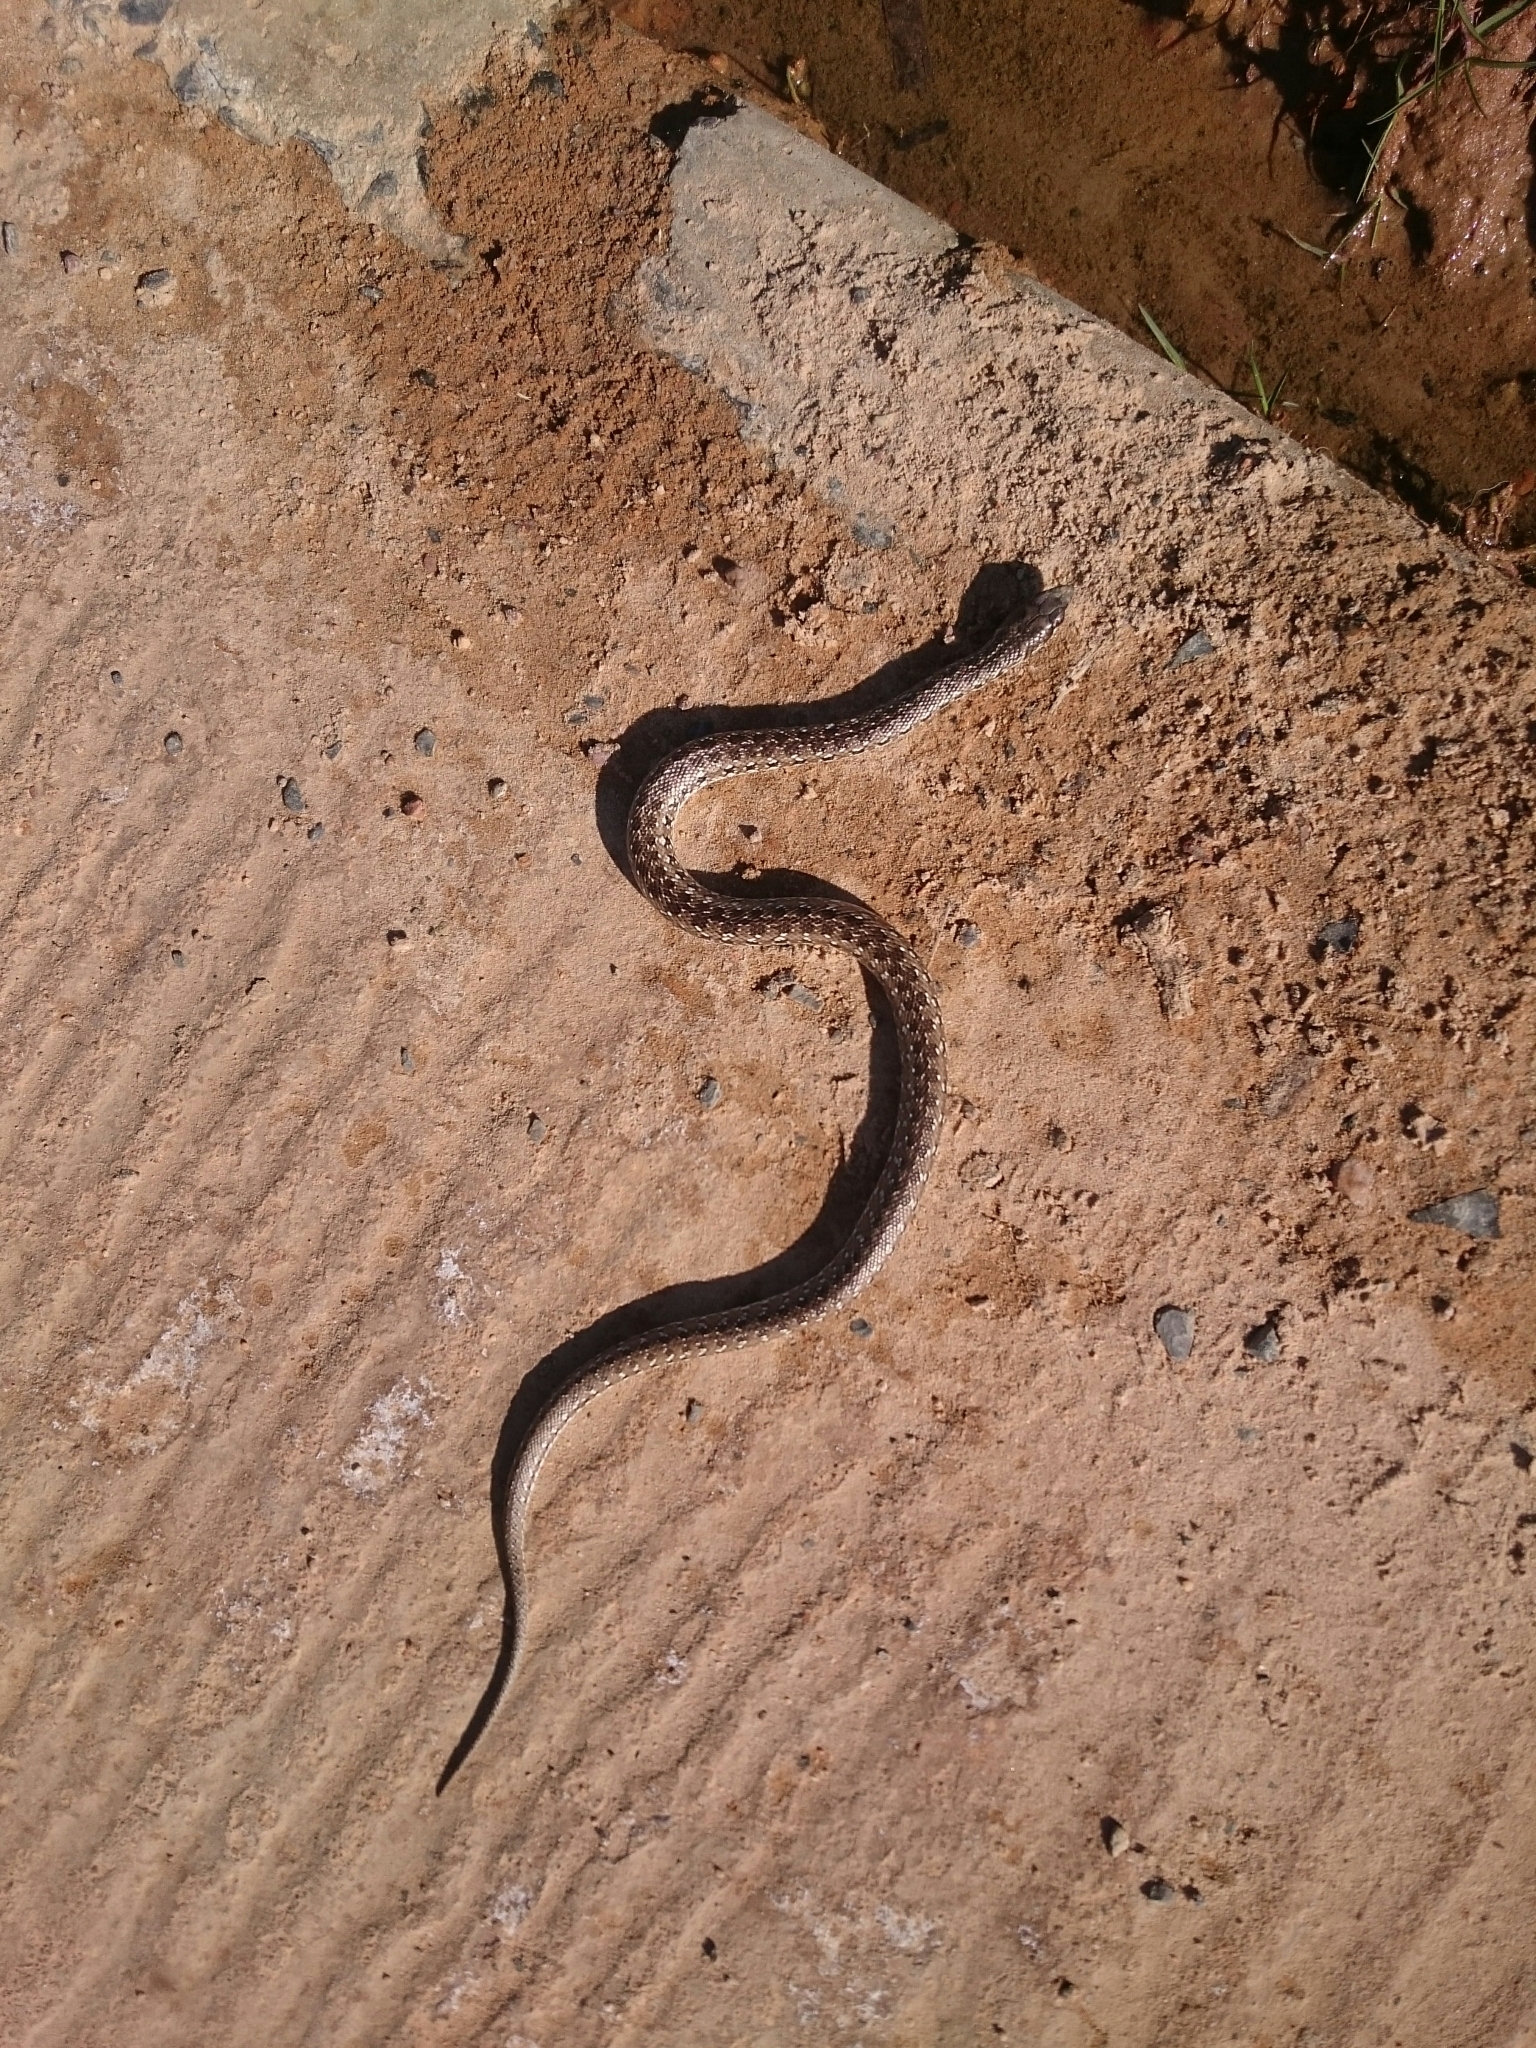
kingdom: Animalia
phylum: Chordata
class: Squamata
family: Pseudaspididae
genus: Pseudaspis
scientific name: Pseudaspis cana
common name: Mole snake
